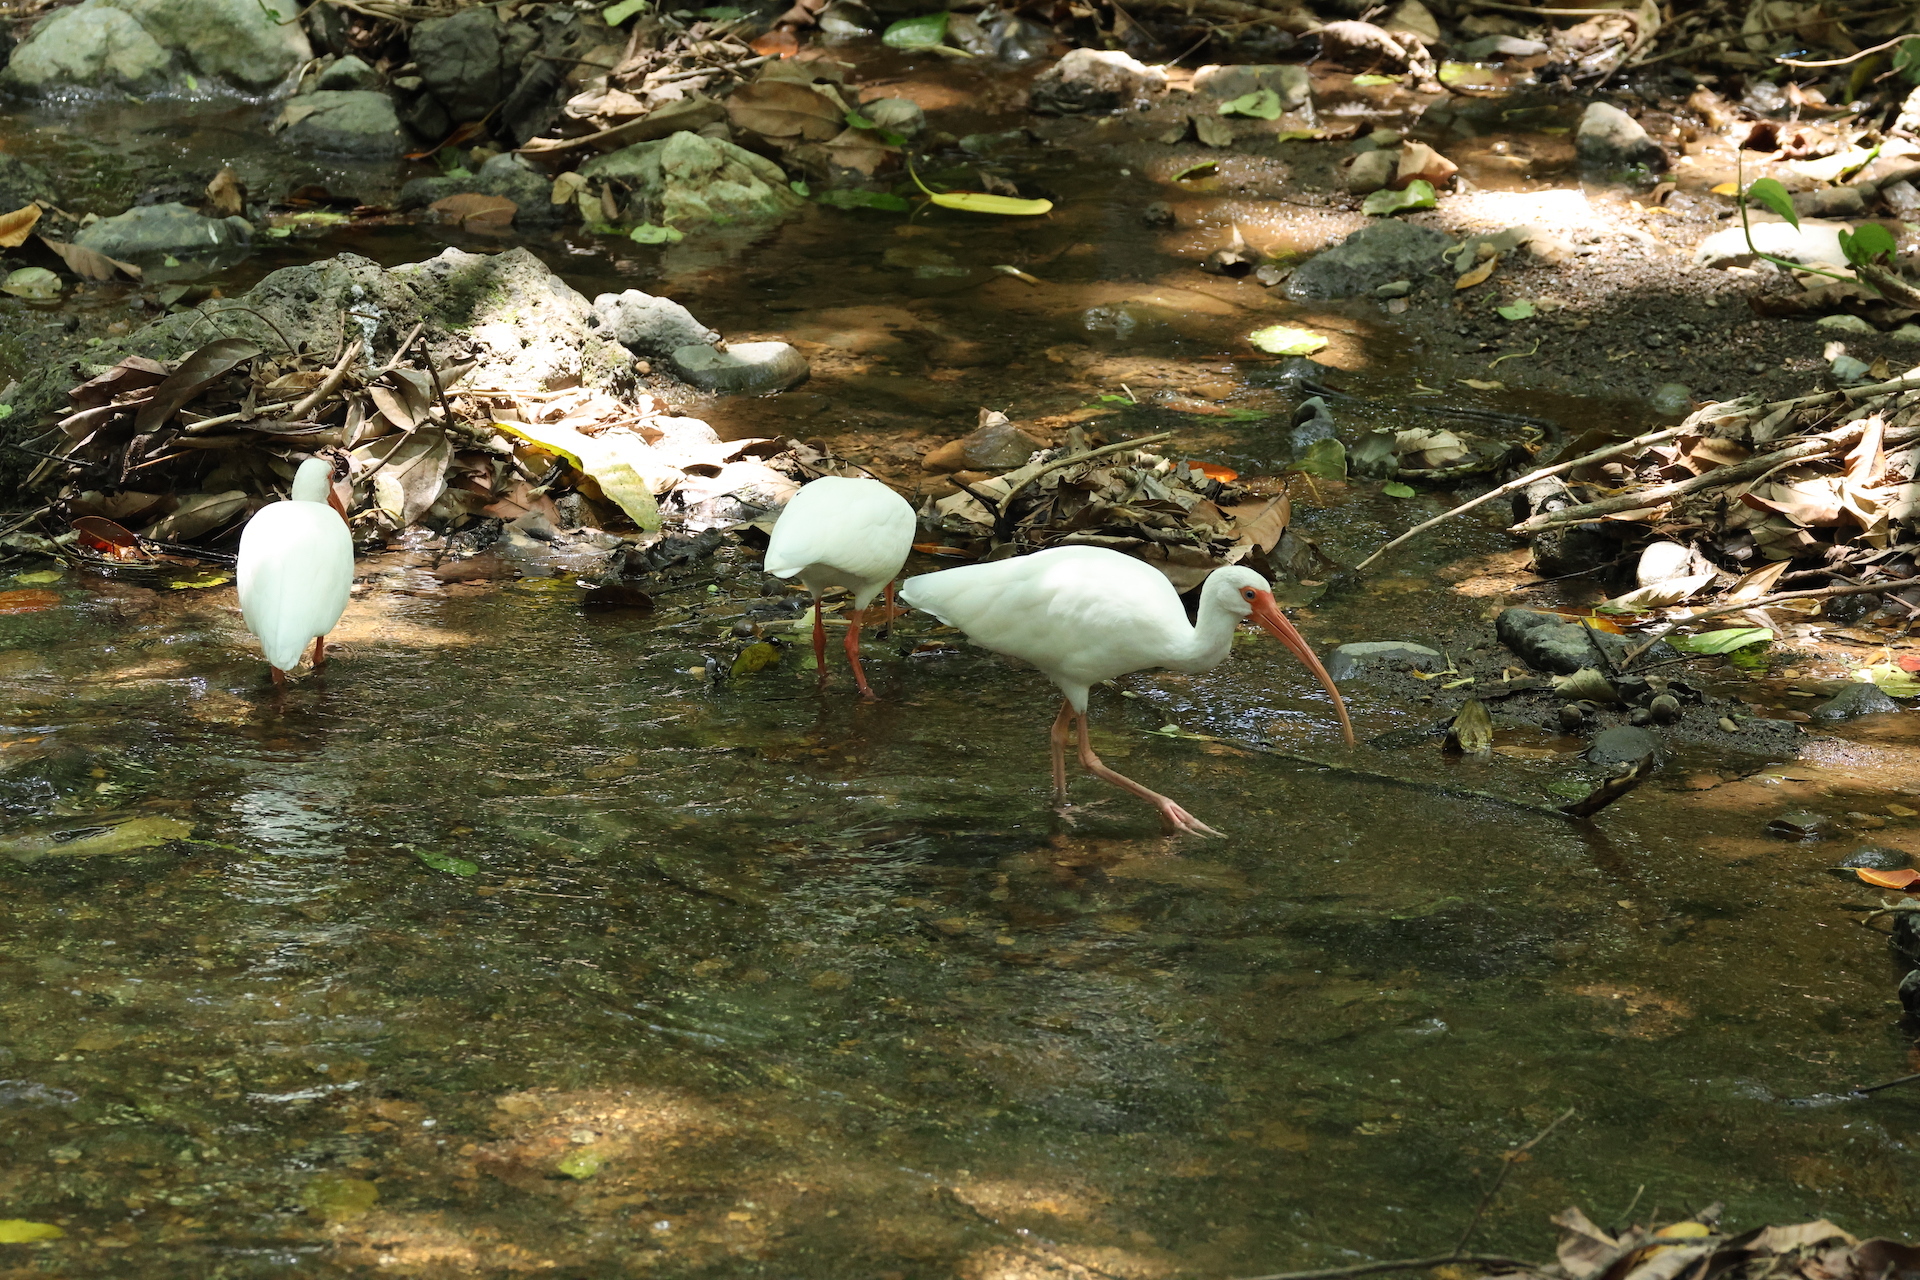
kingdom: Animalia
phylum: Chordata
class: Aves
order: Pelecaniformes
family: Threskiornithidae
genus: Eudocimus
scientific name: Eudocimus albus
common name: White ibis
